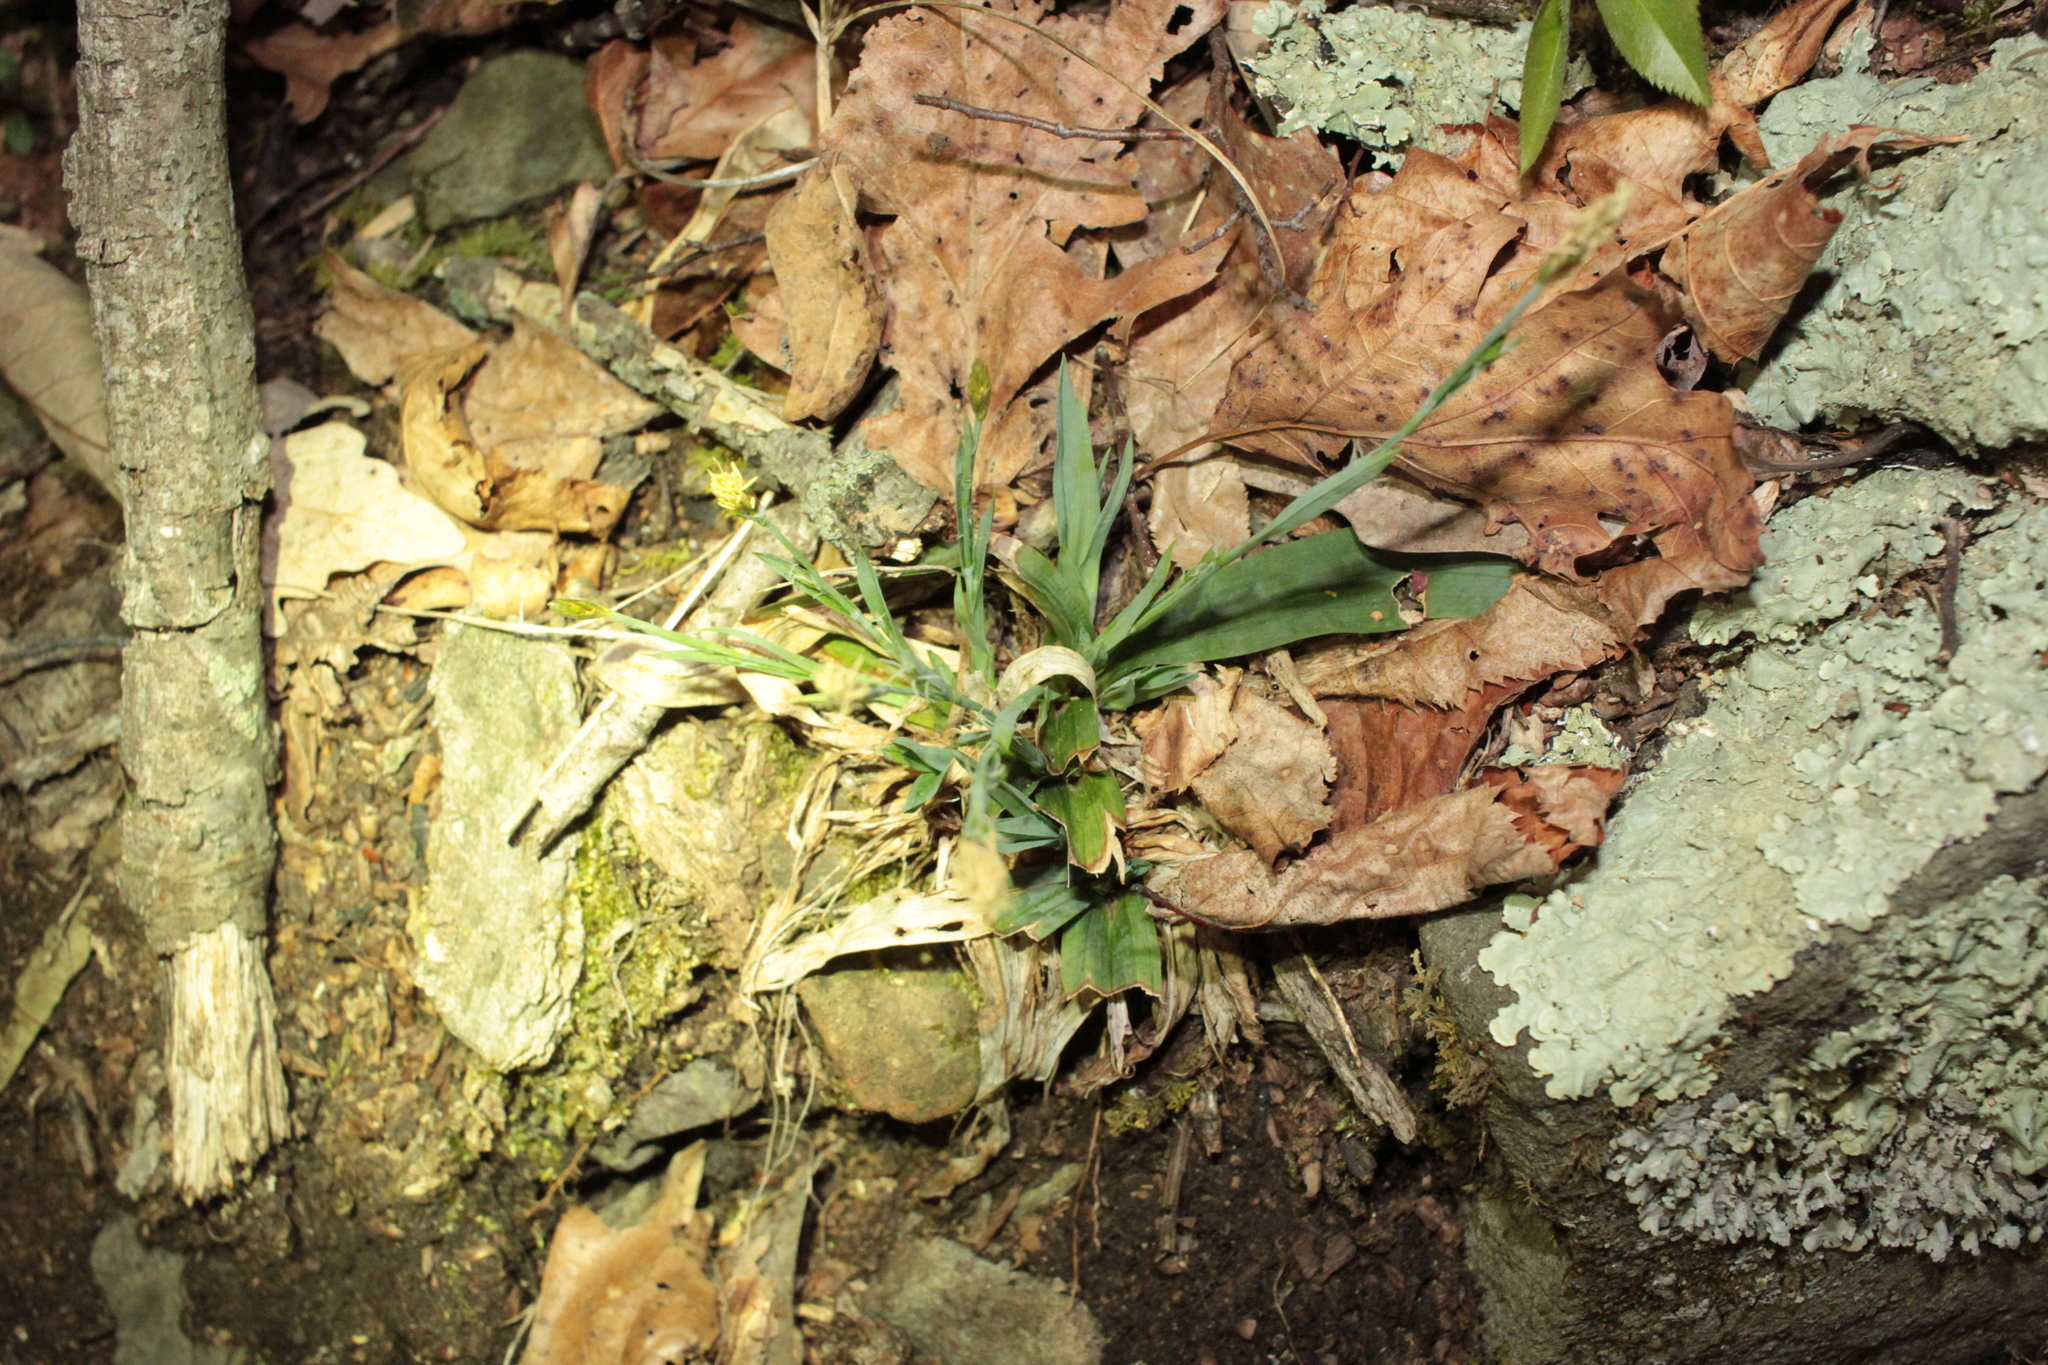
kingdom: Plantae
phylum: Tracheophyta
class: Liliopsida
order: Poales
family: Cyperaceae
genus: Carex
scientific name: Carex platyphylla
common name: Broad-leaved sedge
